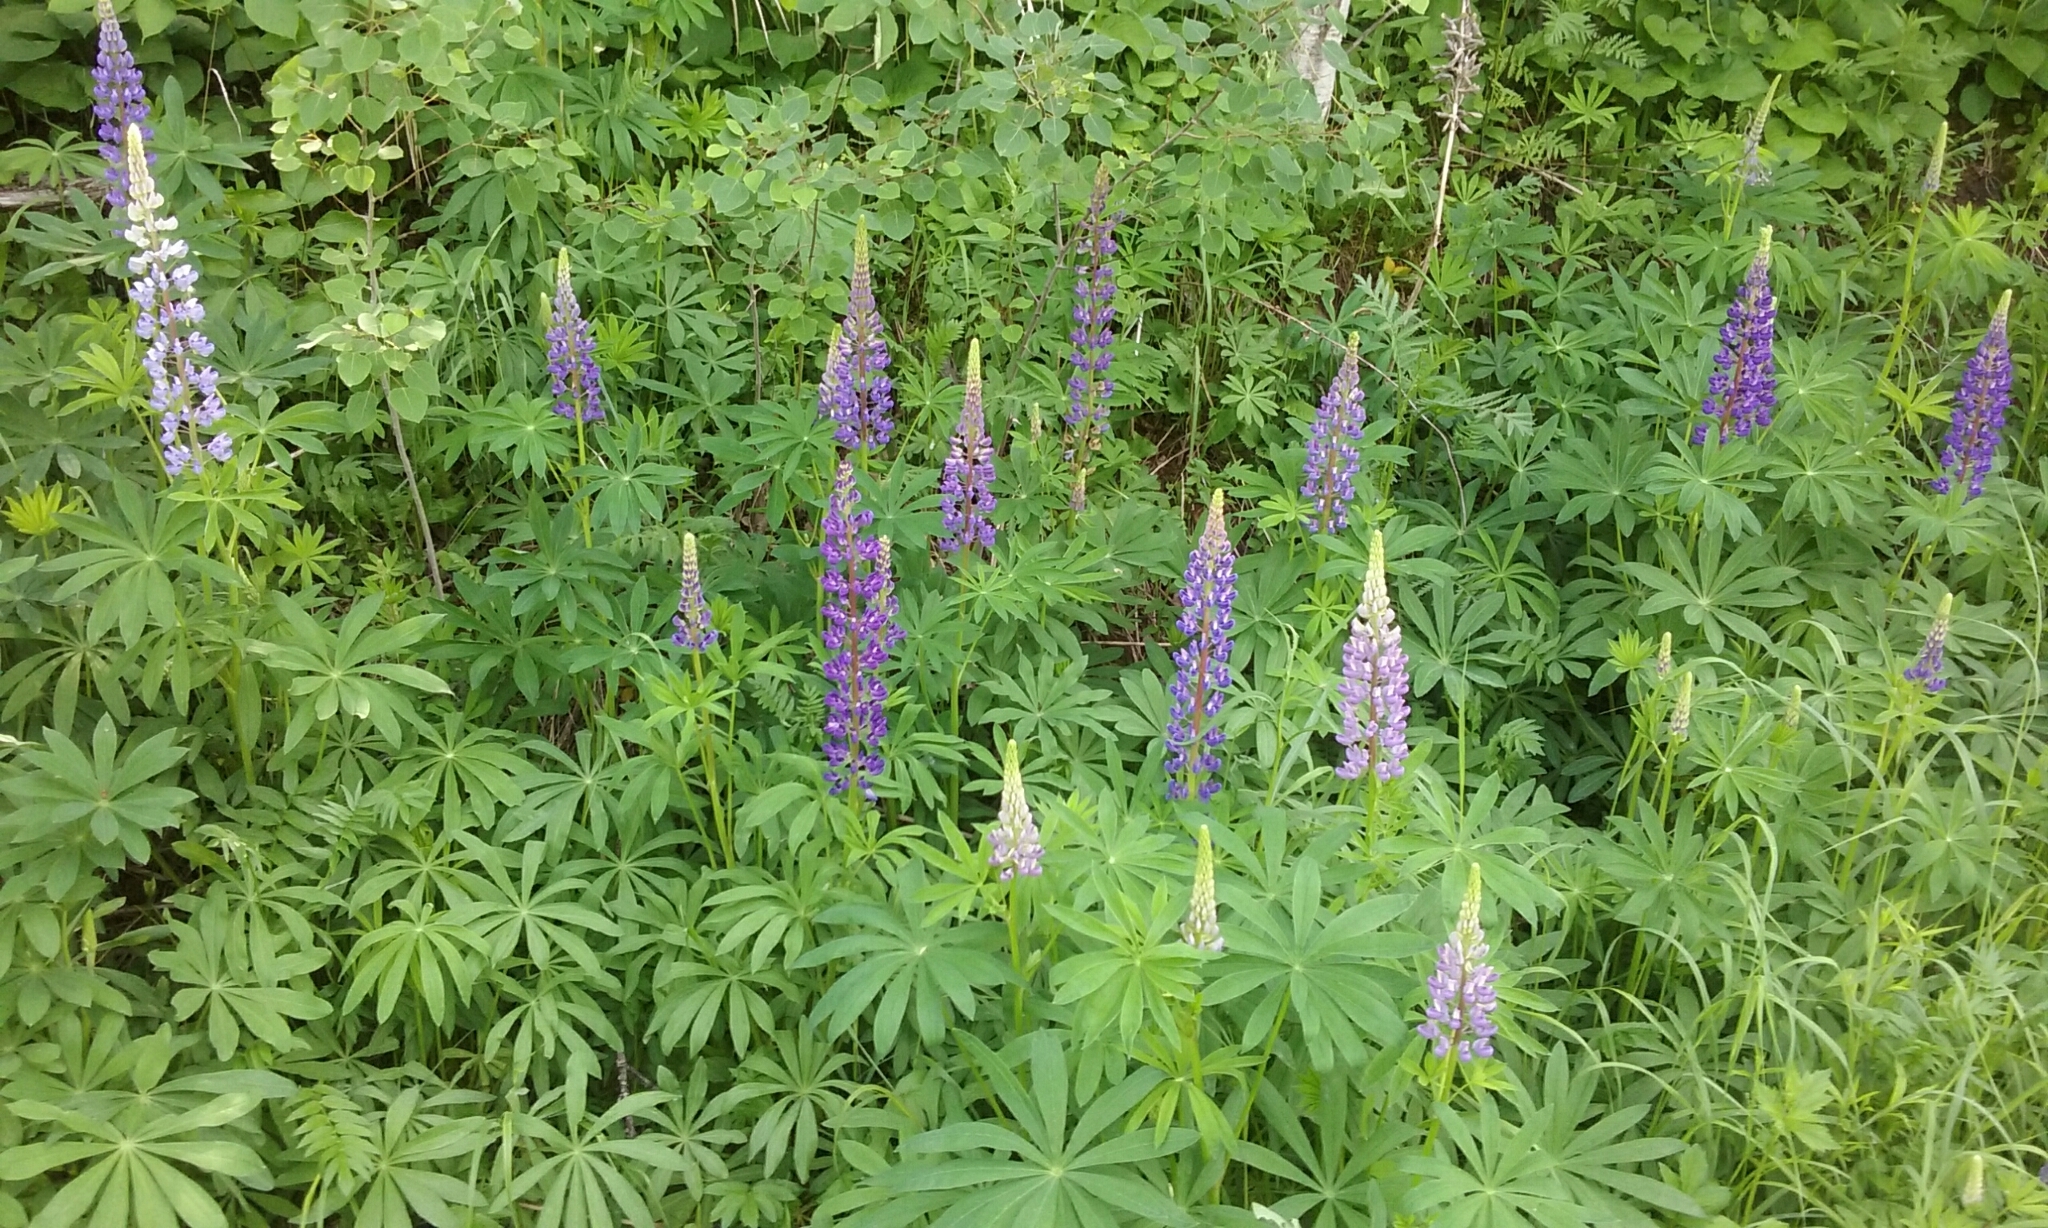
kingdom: Plantae
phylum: Tracheophyta
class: Magnoliopsida
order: Fabales
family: Fabaceae
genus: Lupinus
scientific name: Lupinus polyphyllus
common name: Garden lupin
